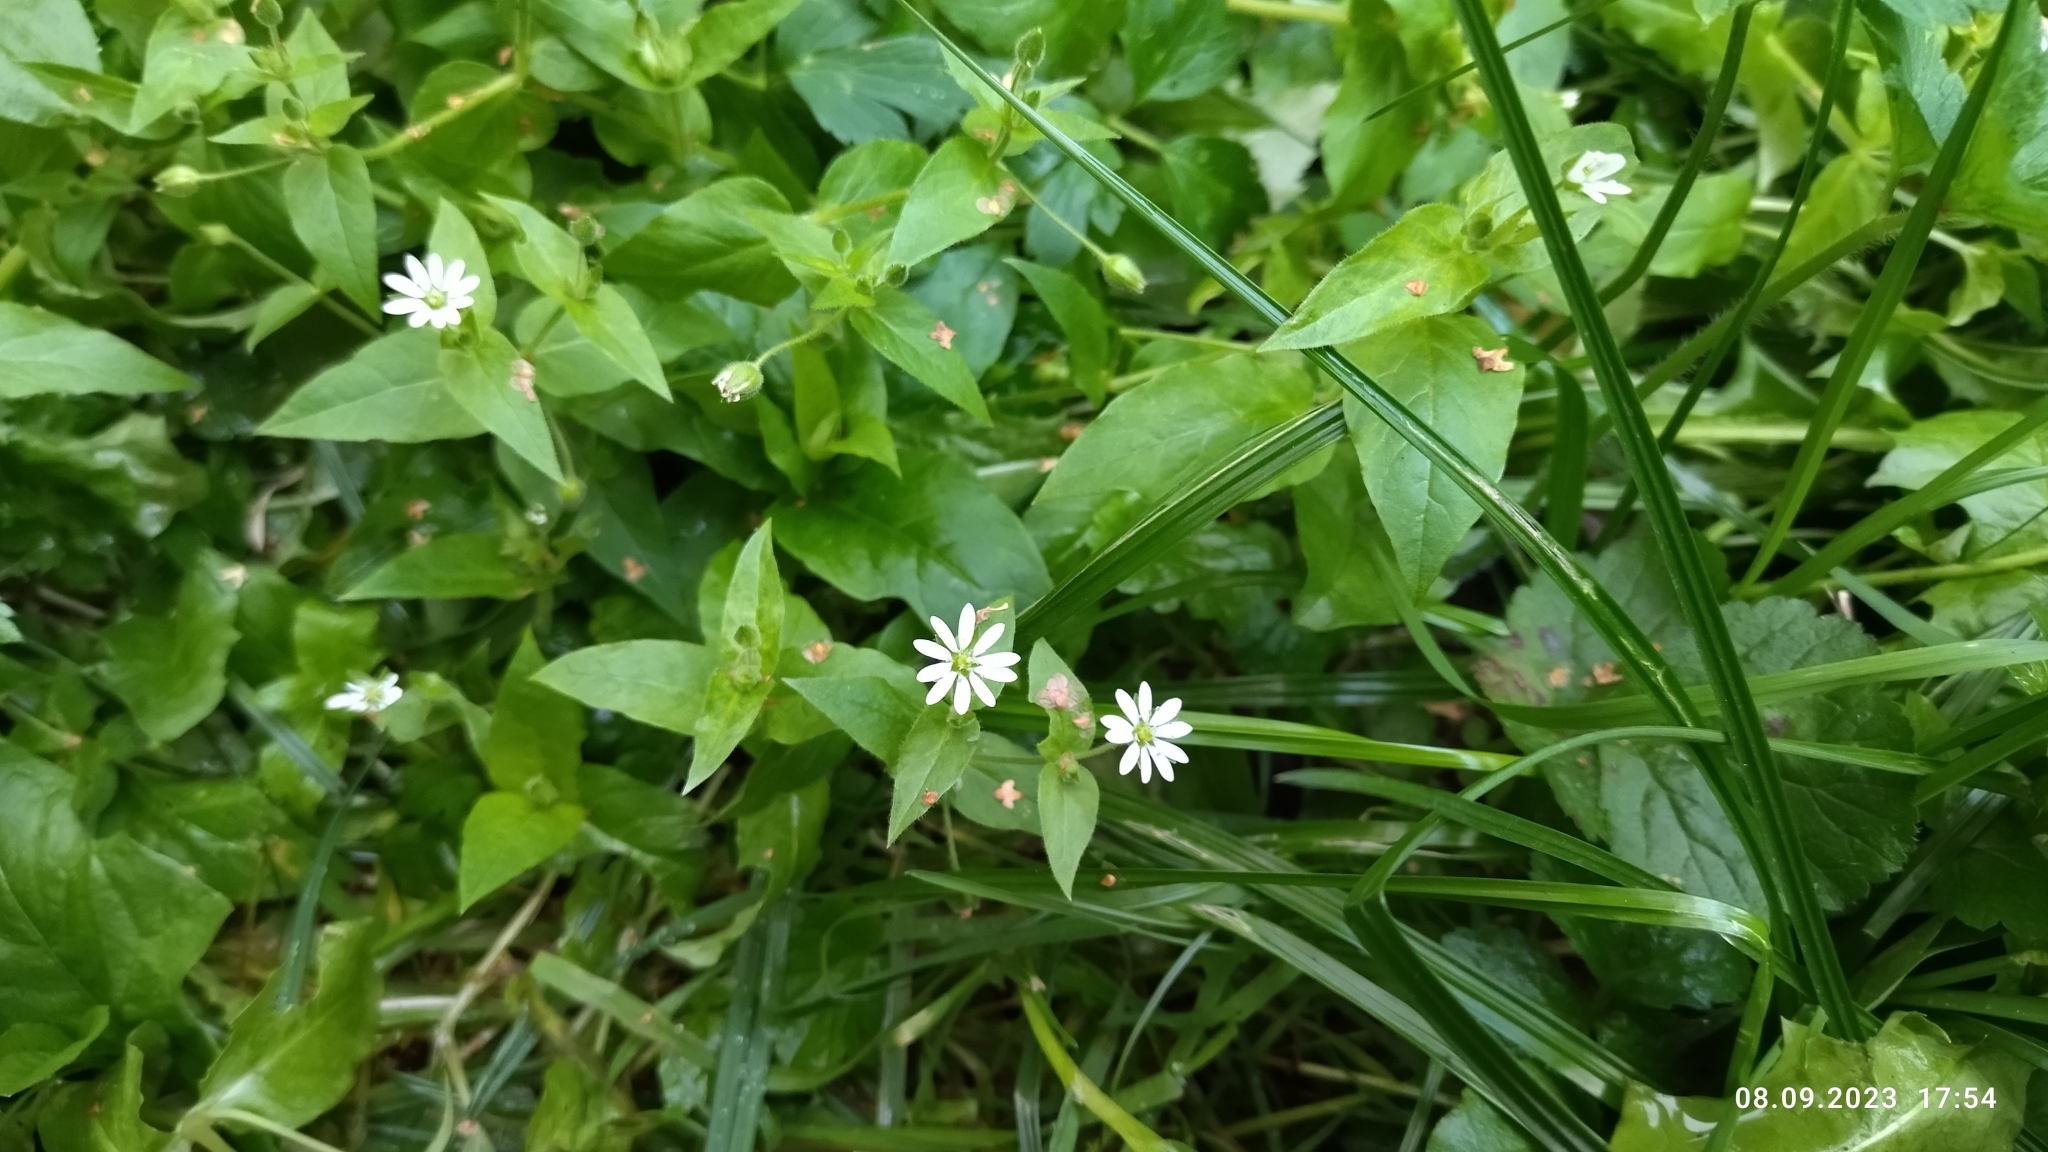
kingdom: Plantae
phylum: Tracheophyta
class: Magnoliopsida
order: Caryophyllales
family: Caryophyllaceae
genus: Stellaria
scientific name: Stellaria aquatica
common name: Water chickweed
